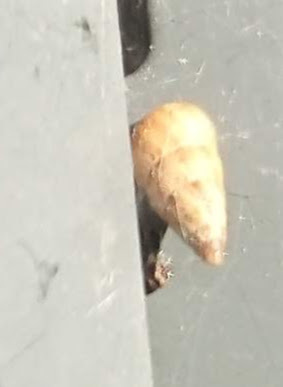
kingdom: Animalia
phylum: Mollusca
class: Gastropoda
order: Stylommatophora
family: Geomitridae
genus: Cochlicella
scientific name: Cochlicella acuta
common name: Pointed snail
